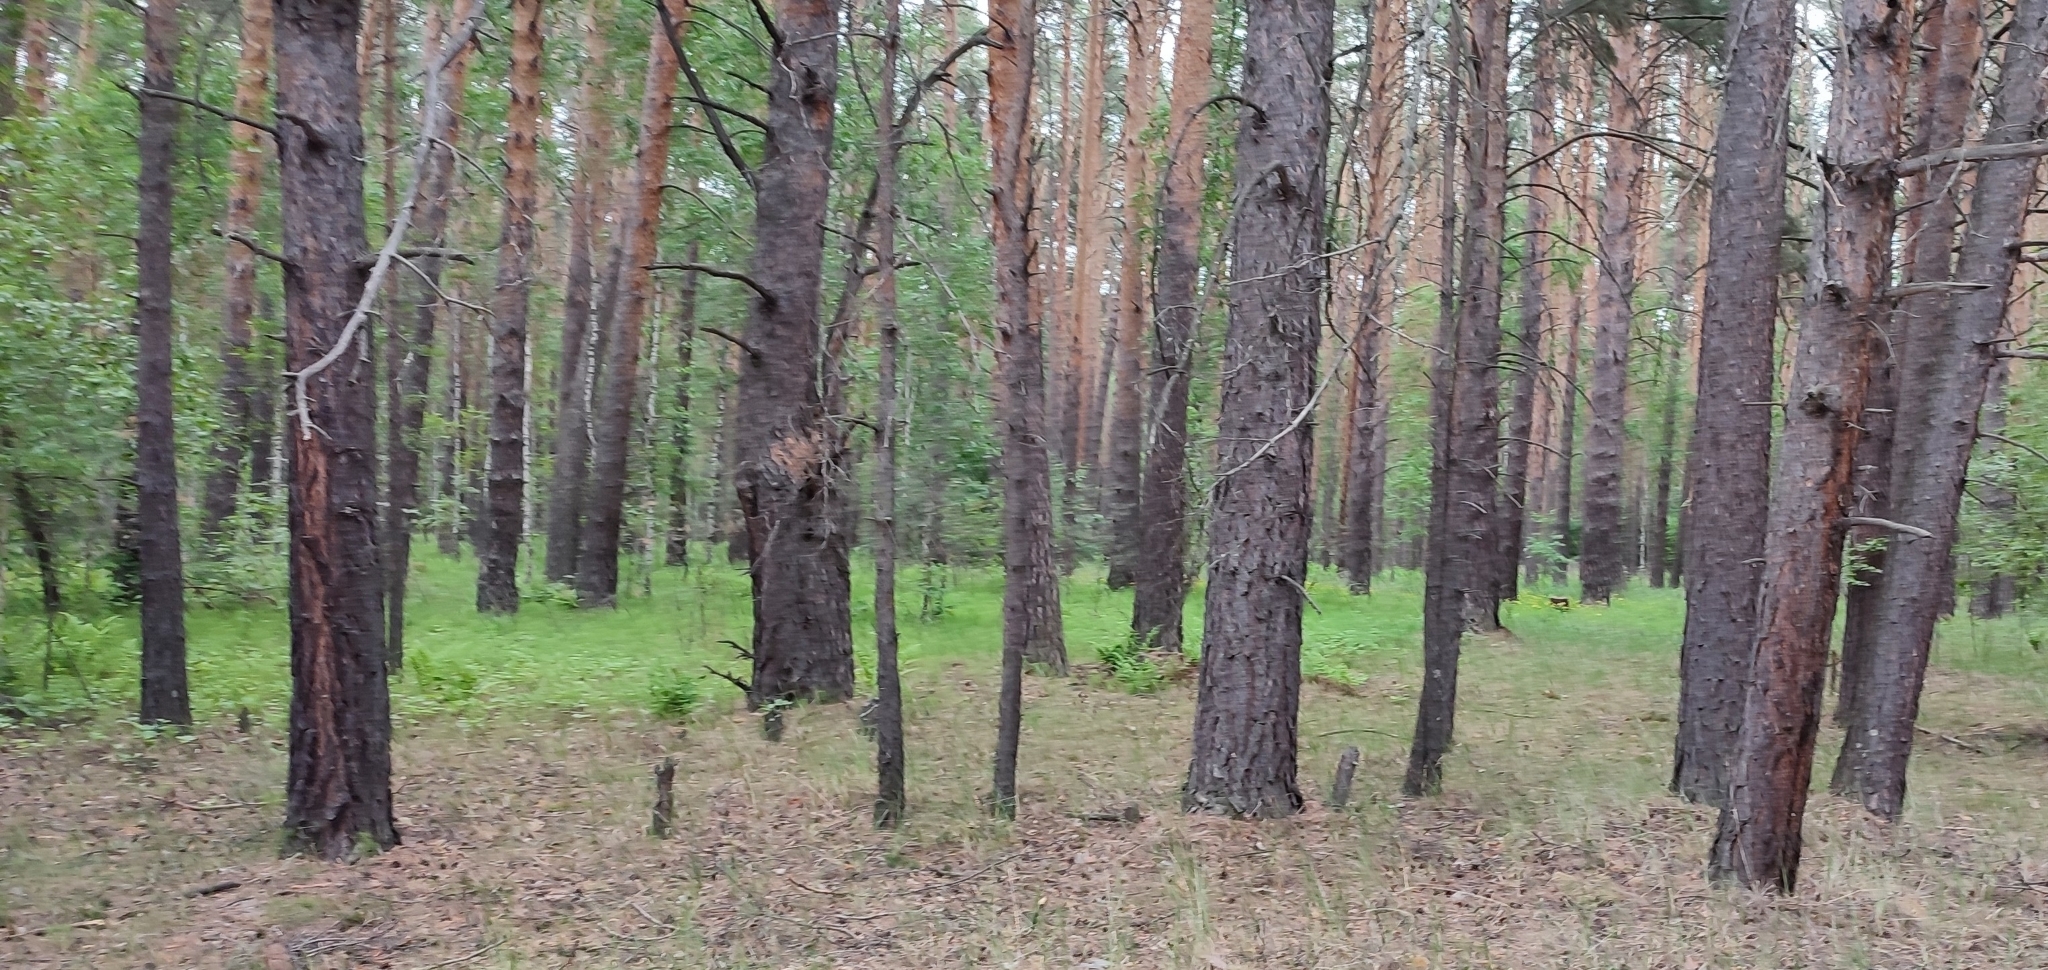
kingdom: Plantae
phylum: Tracheophyta
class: Pinopsida
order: Pinales
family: Pinaceae
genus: Pinus
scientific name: Pinus sylvestris
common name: Scots pine
